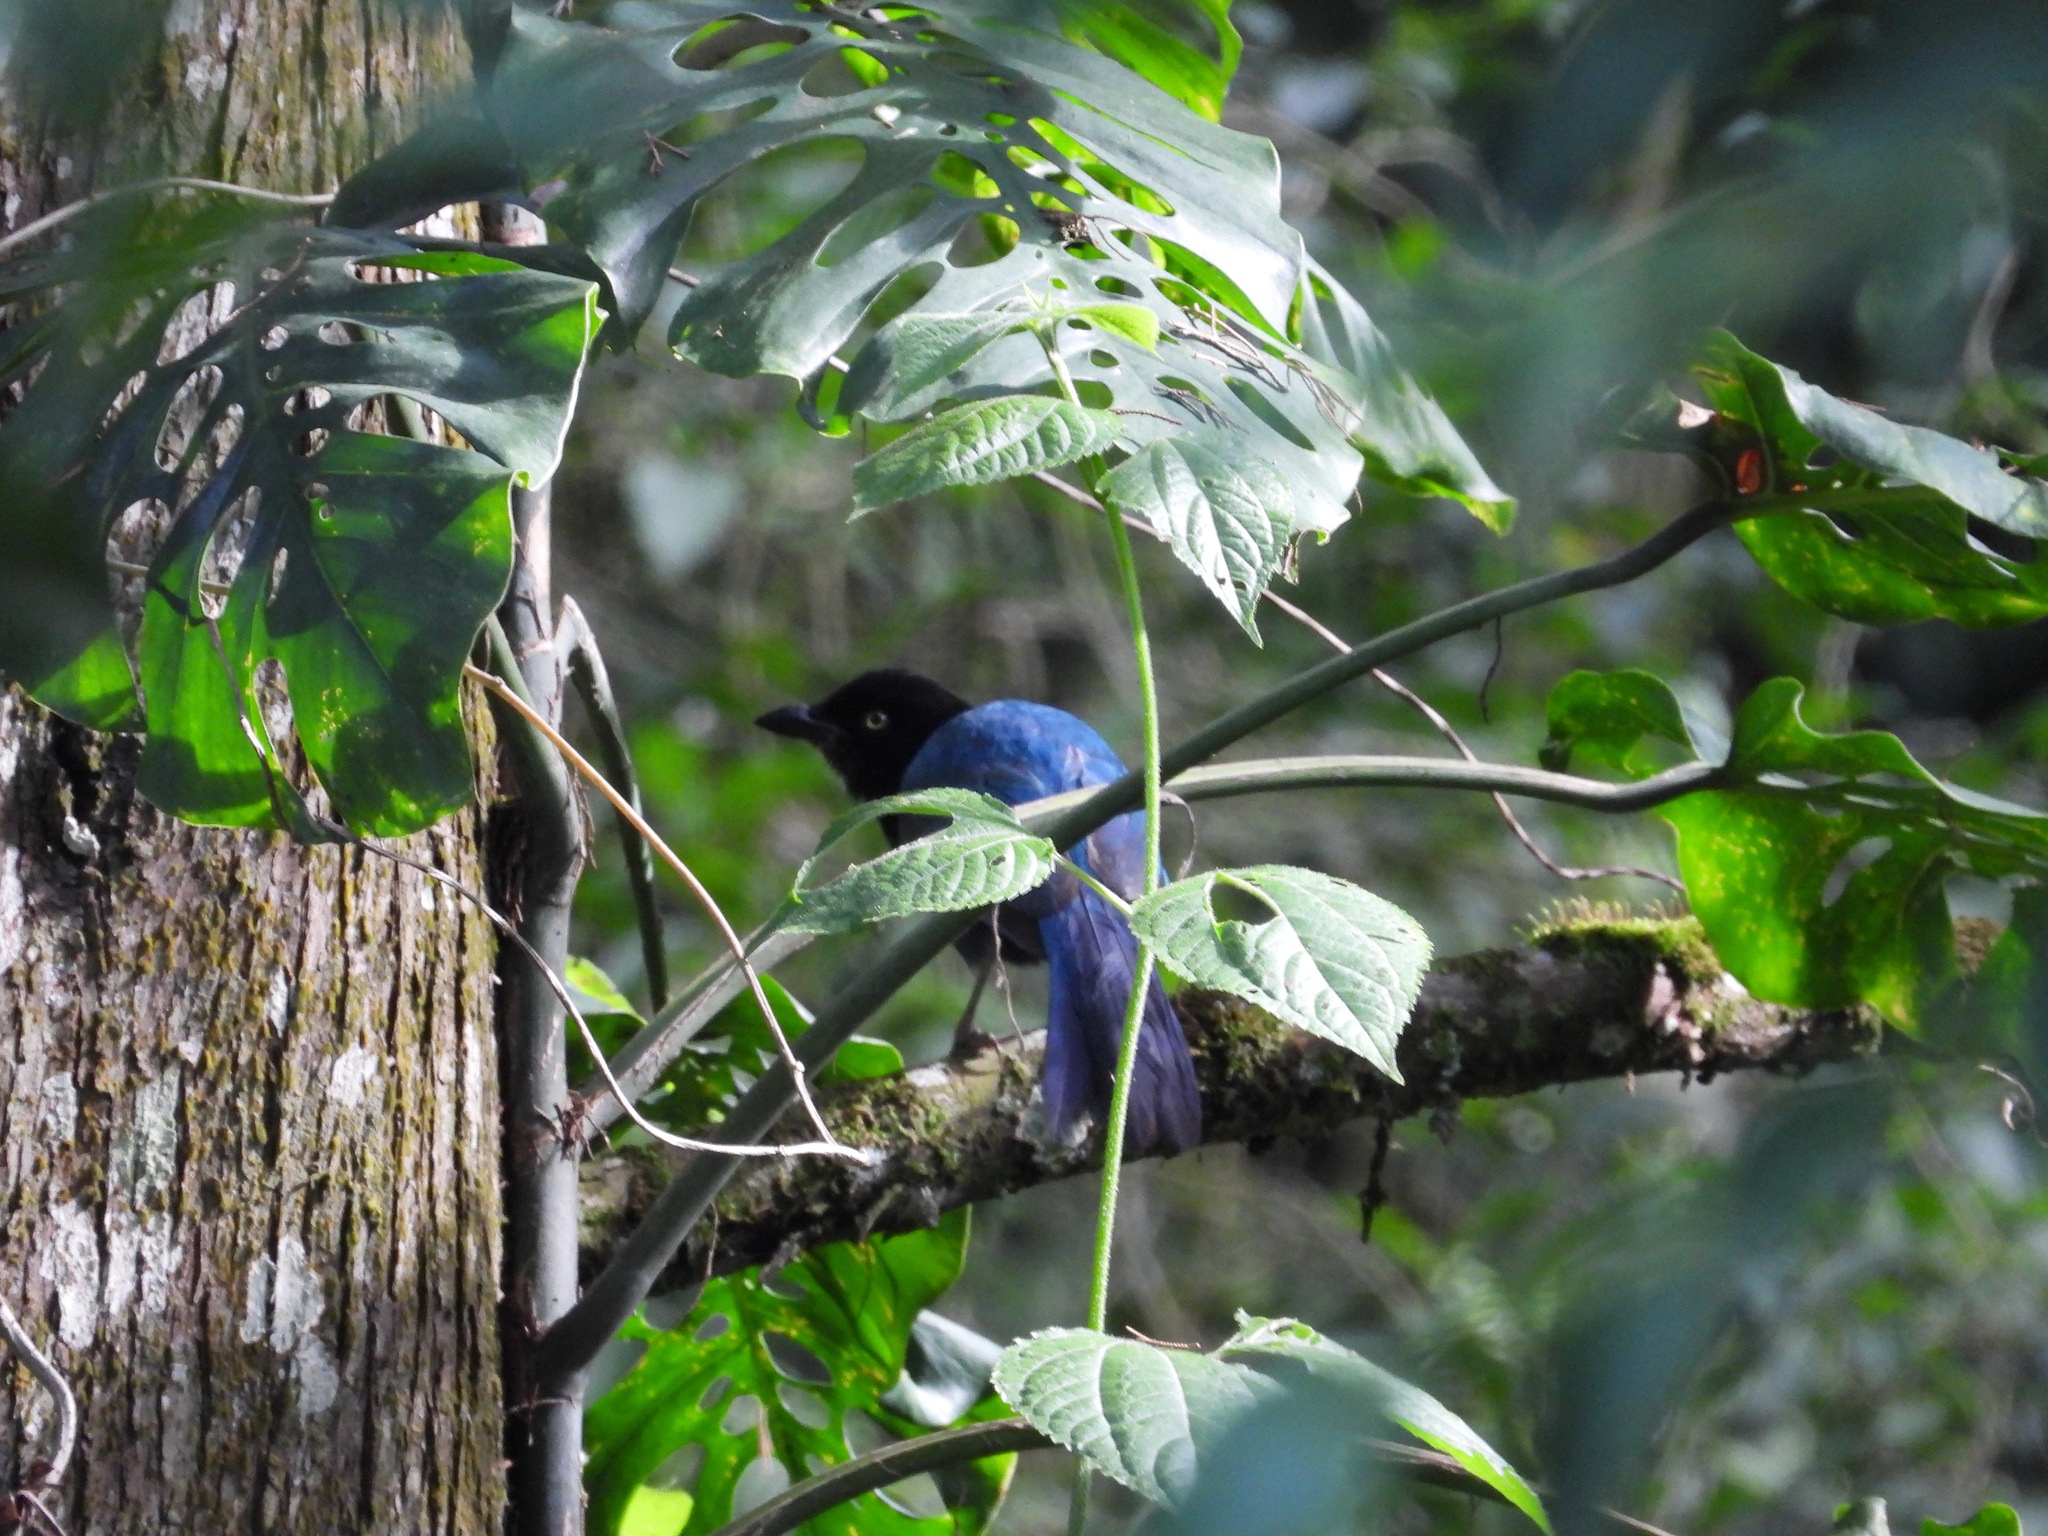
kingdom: Animalia
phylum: Chordata
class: Aves
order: Passeriformes
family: Corvidae
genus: Cyanocorax
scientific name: Cyanocorax melanocyaneus
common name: Bushy-crested jay
